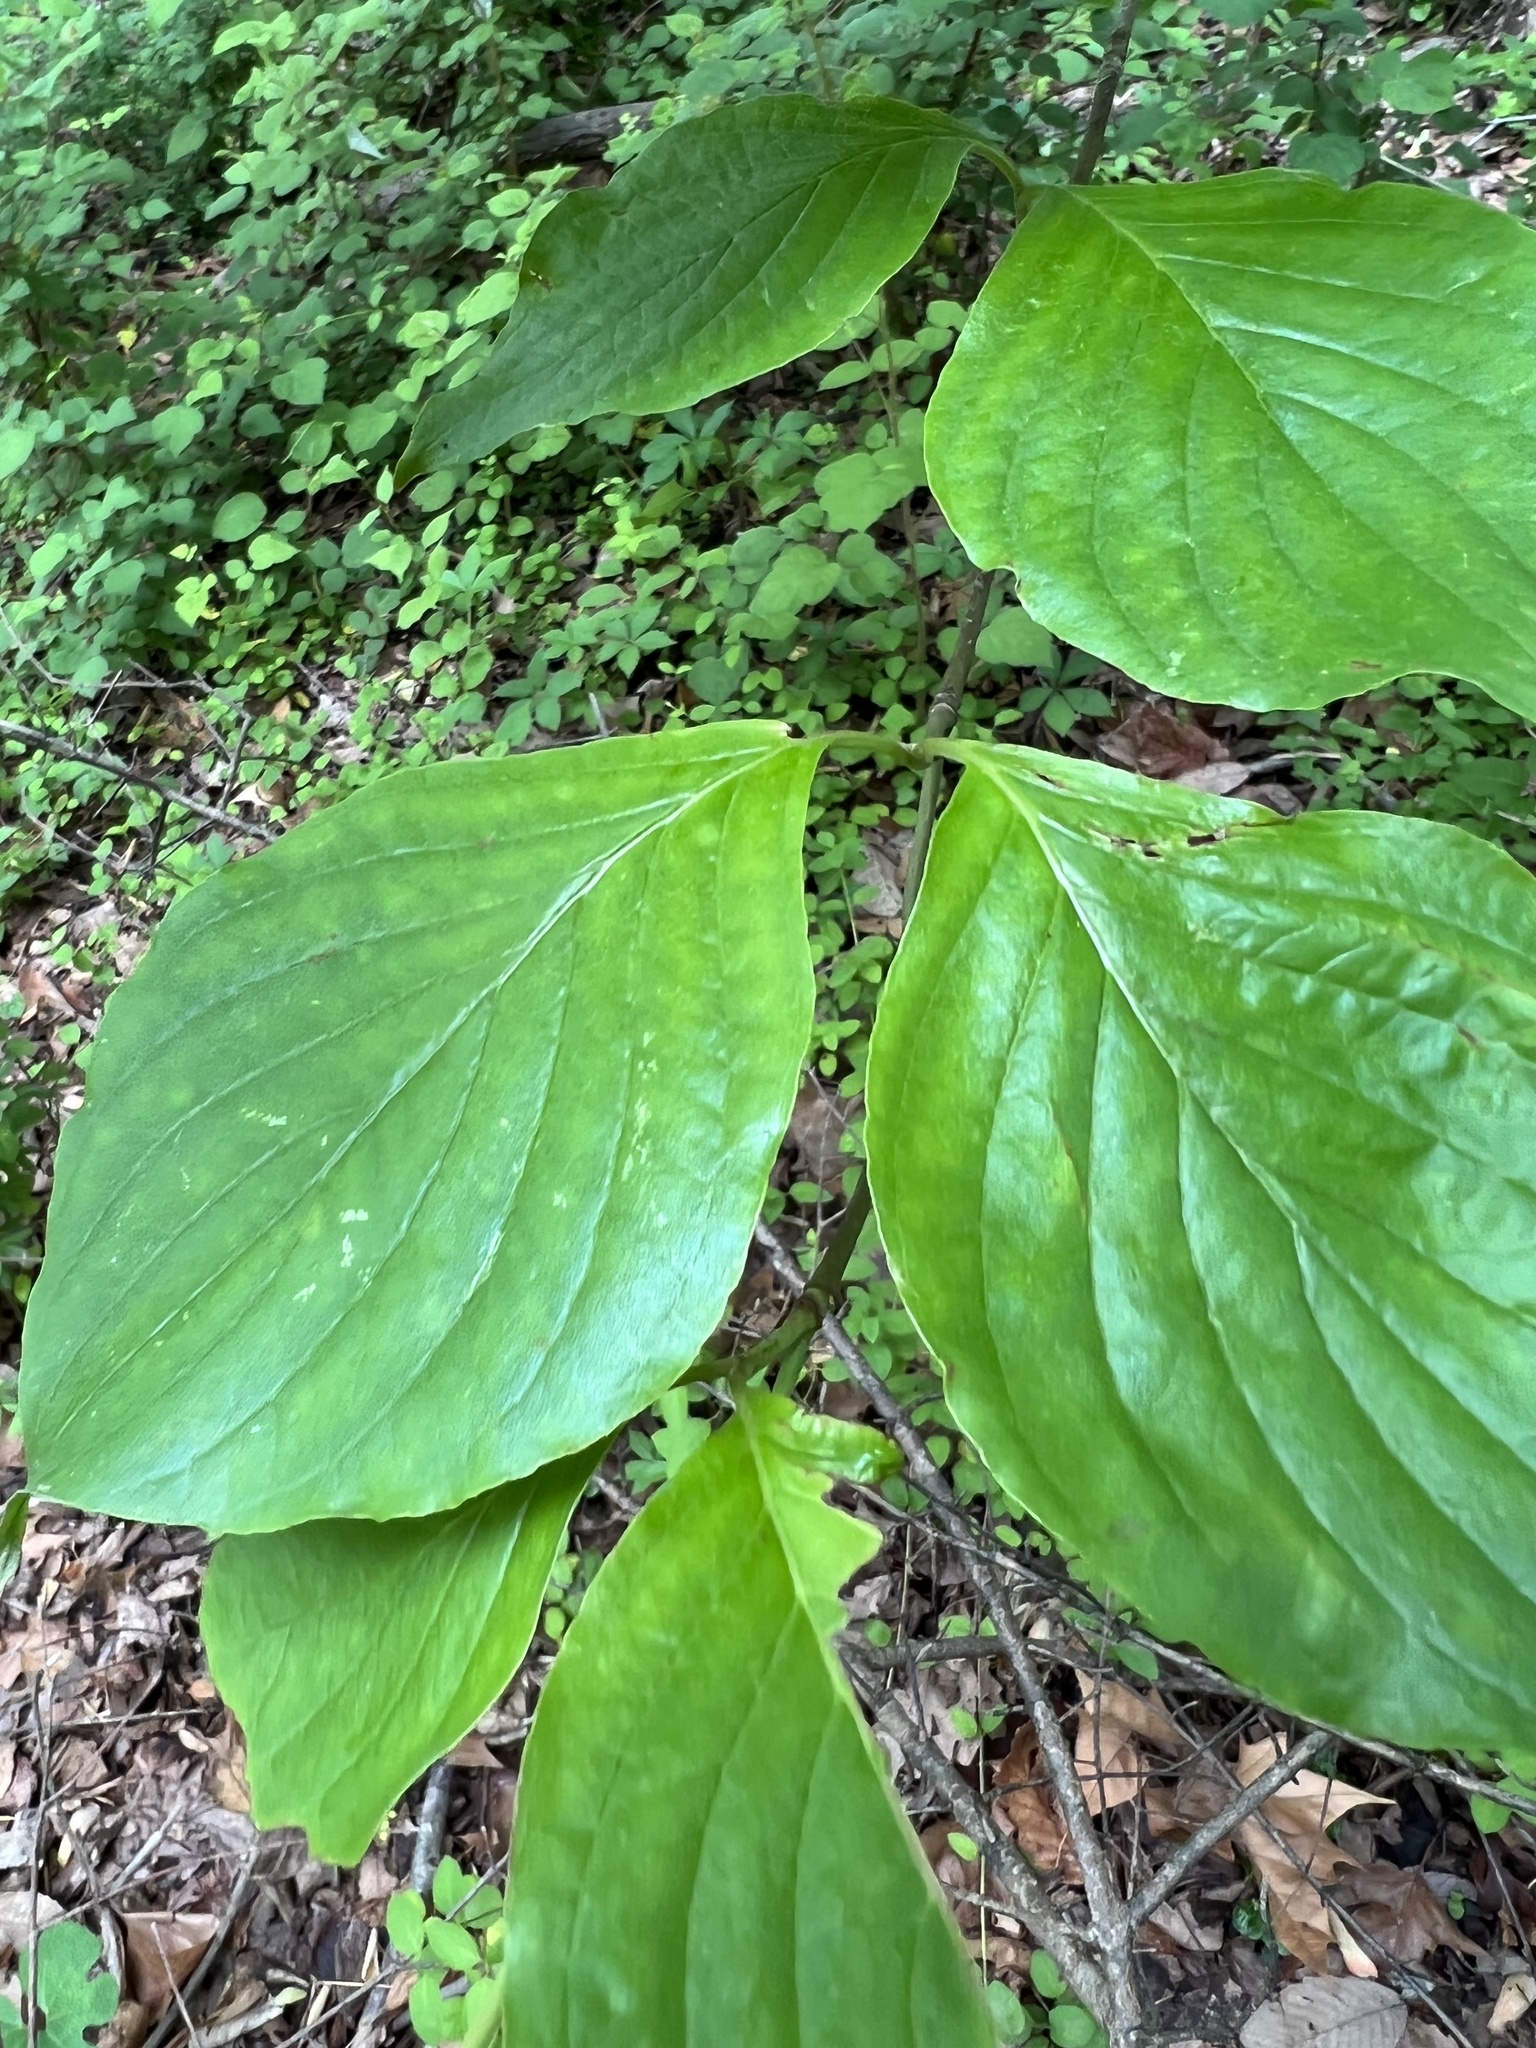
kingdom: Plantae
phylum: Tracheophyta
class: Magnoliopsida
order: Cornales
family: Cornaceae
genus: Cornus
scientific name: Cornus florida
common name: Flowering dogwood
